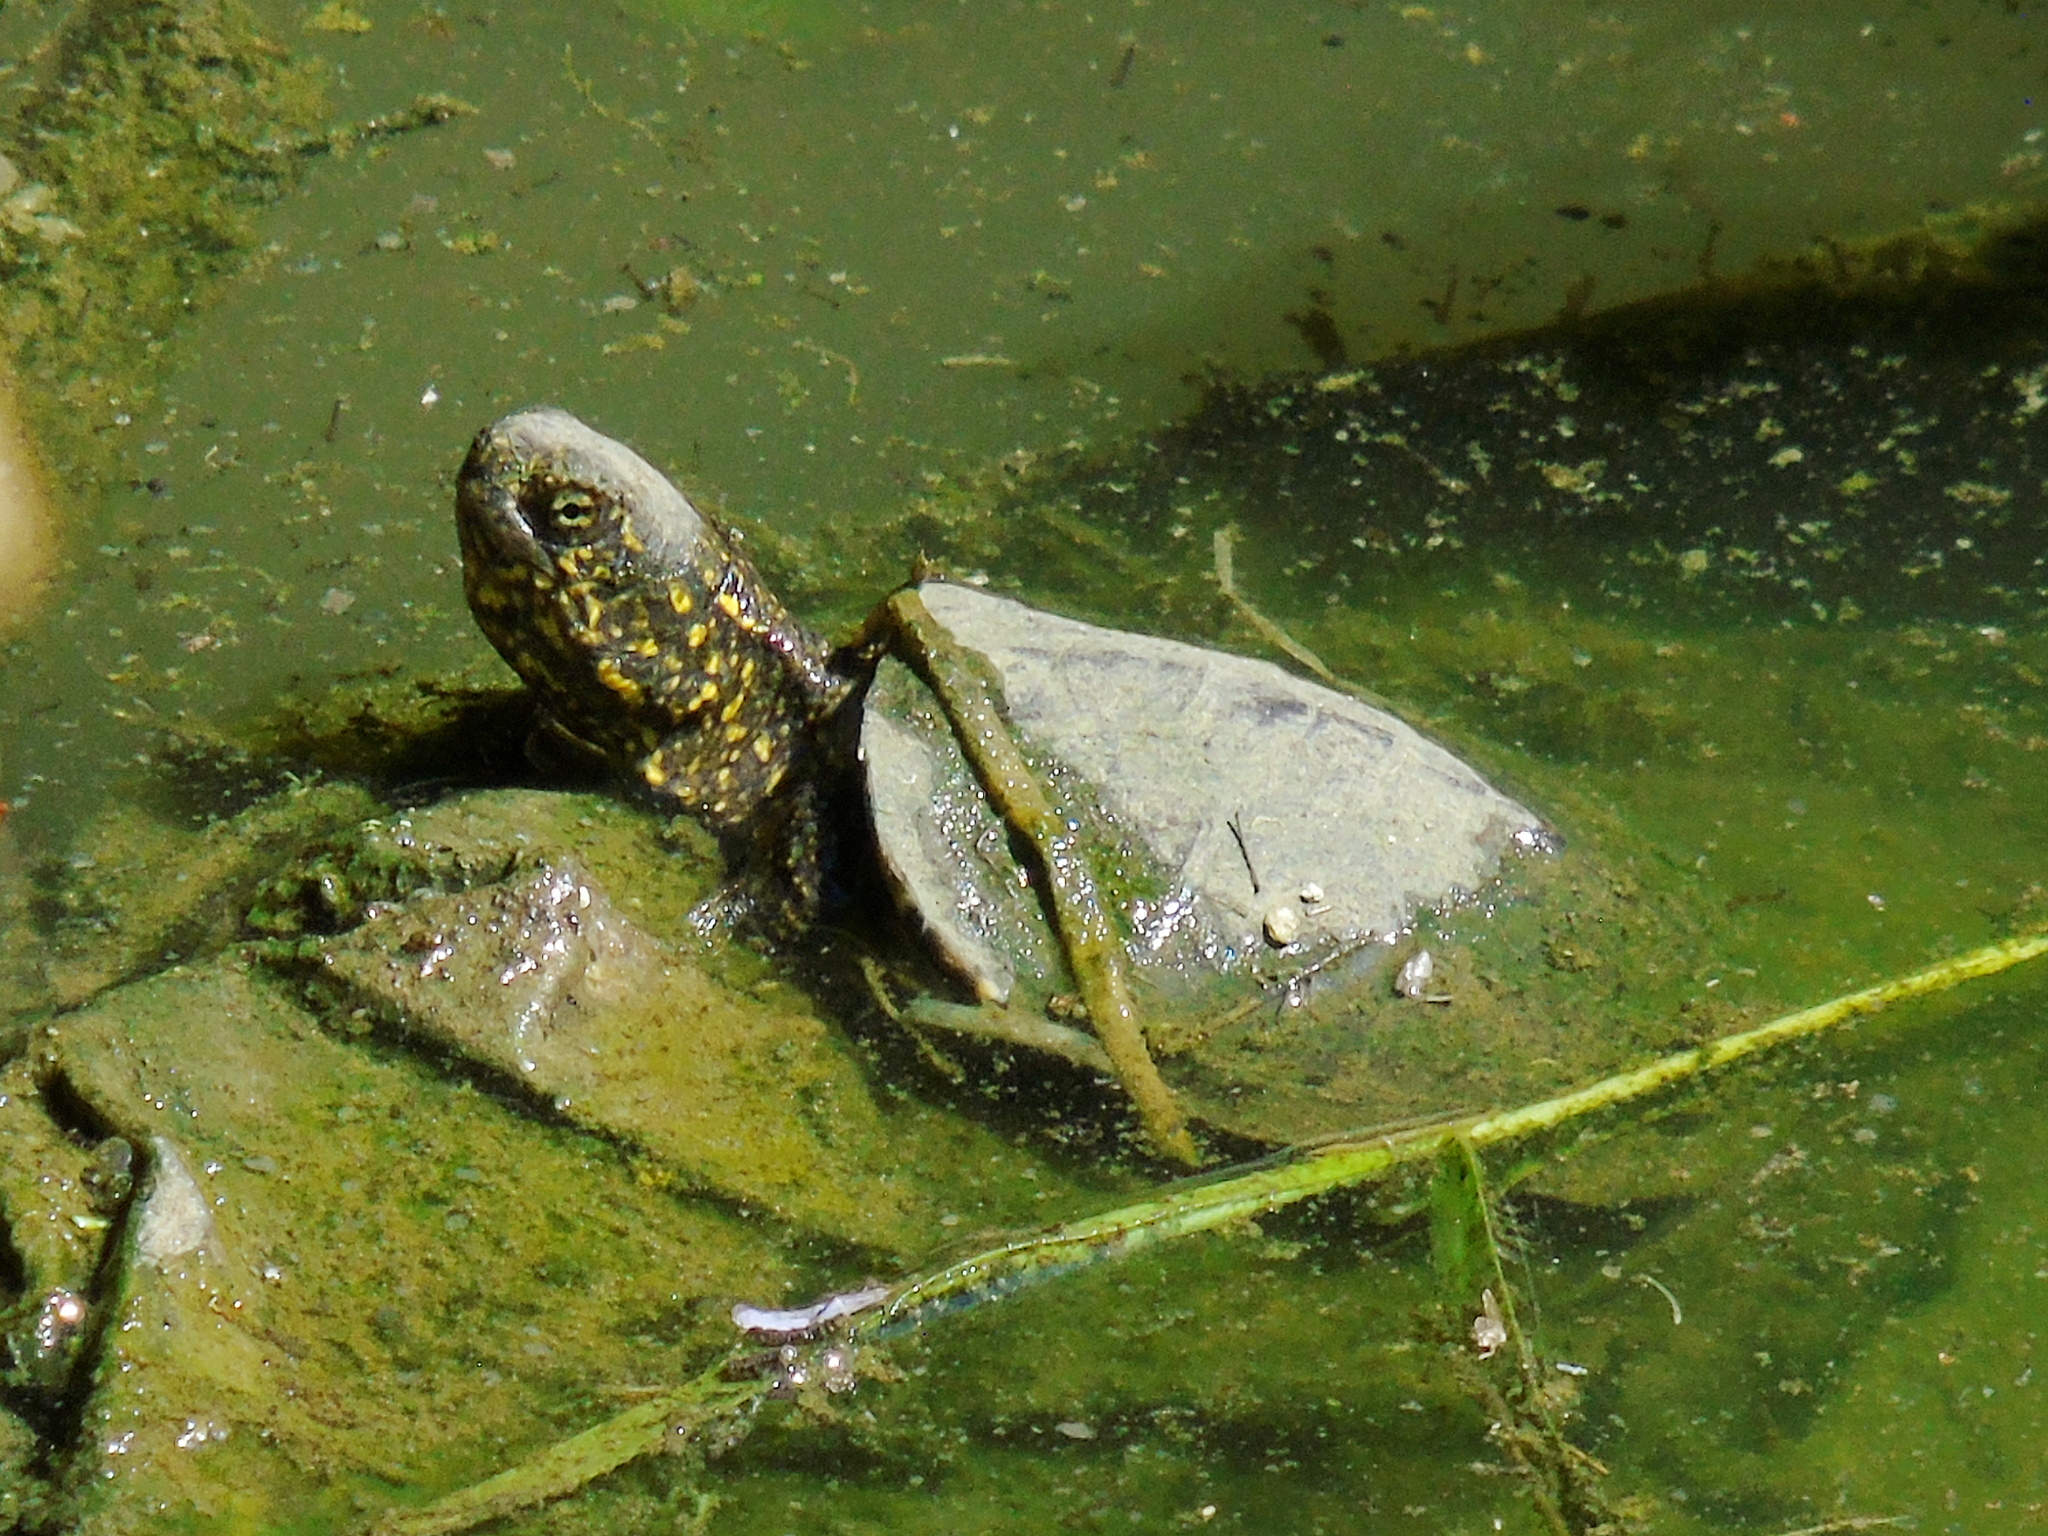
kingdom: Animalia
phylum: Chordata
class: Testudines
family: Emydidae
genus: Emys
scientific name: Emys orbicularis
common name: European pond turtle
